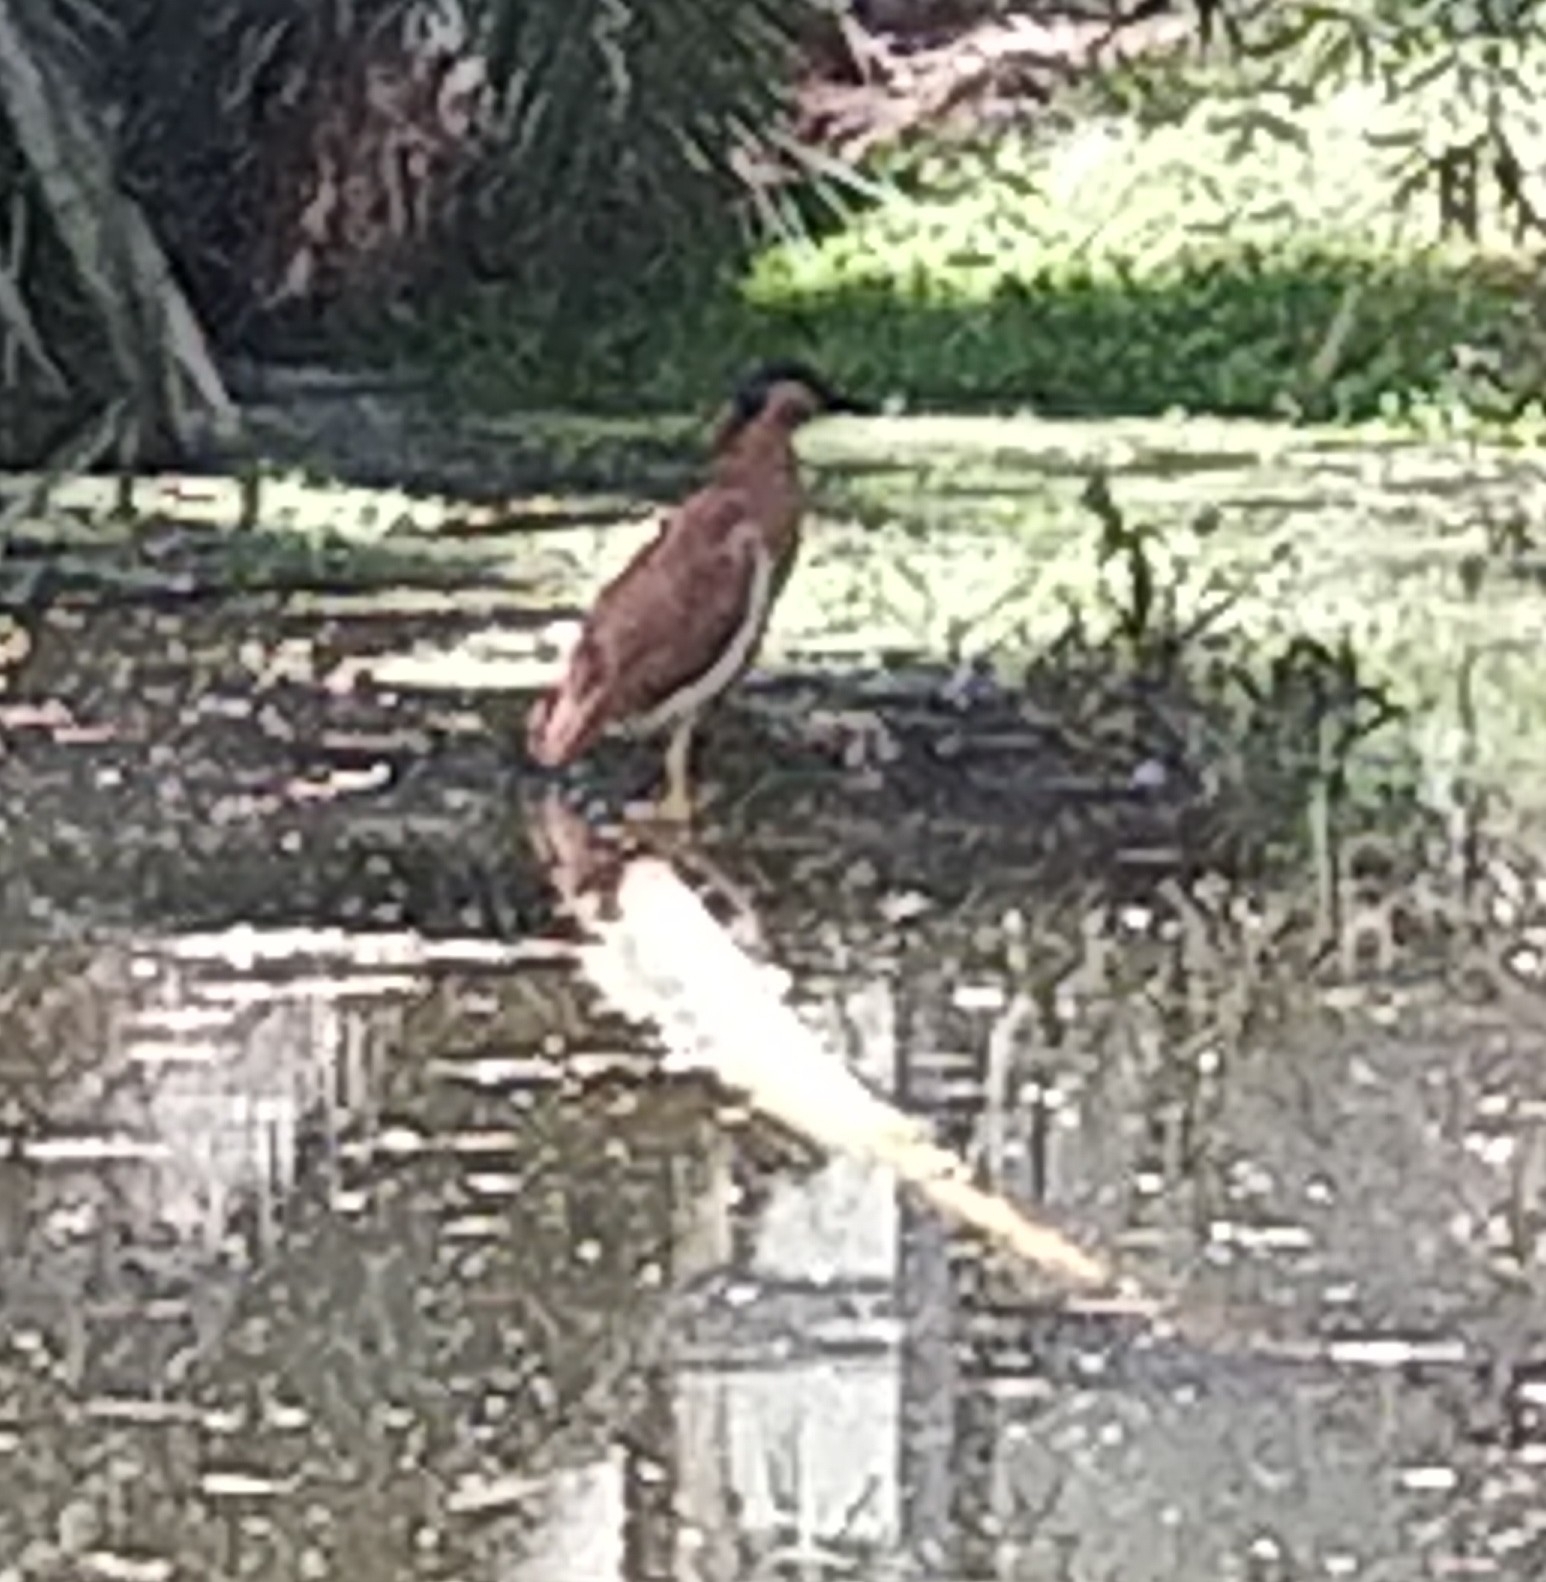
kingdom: Animalia
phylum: Chordata
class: Aves
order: Pelecaniformes
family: Ardeidae
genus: Nycticorax
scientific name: Nycticorax caledonicus
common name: Rufous night-heron
